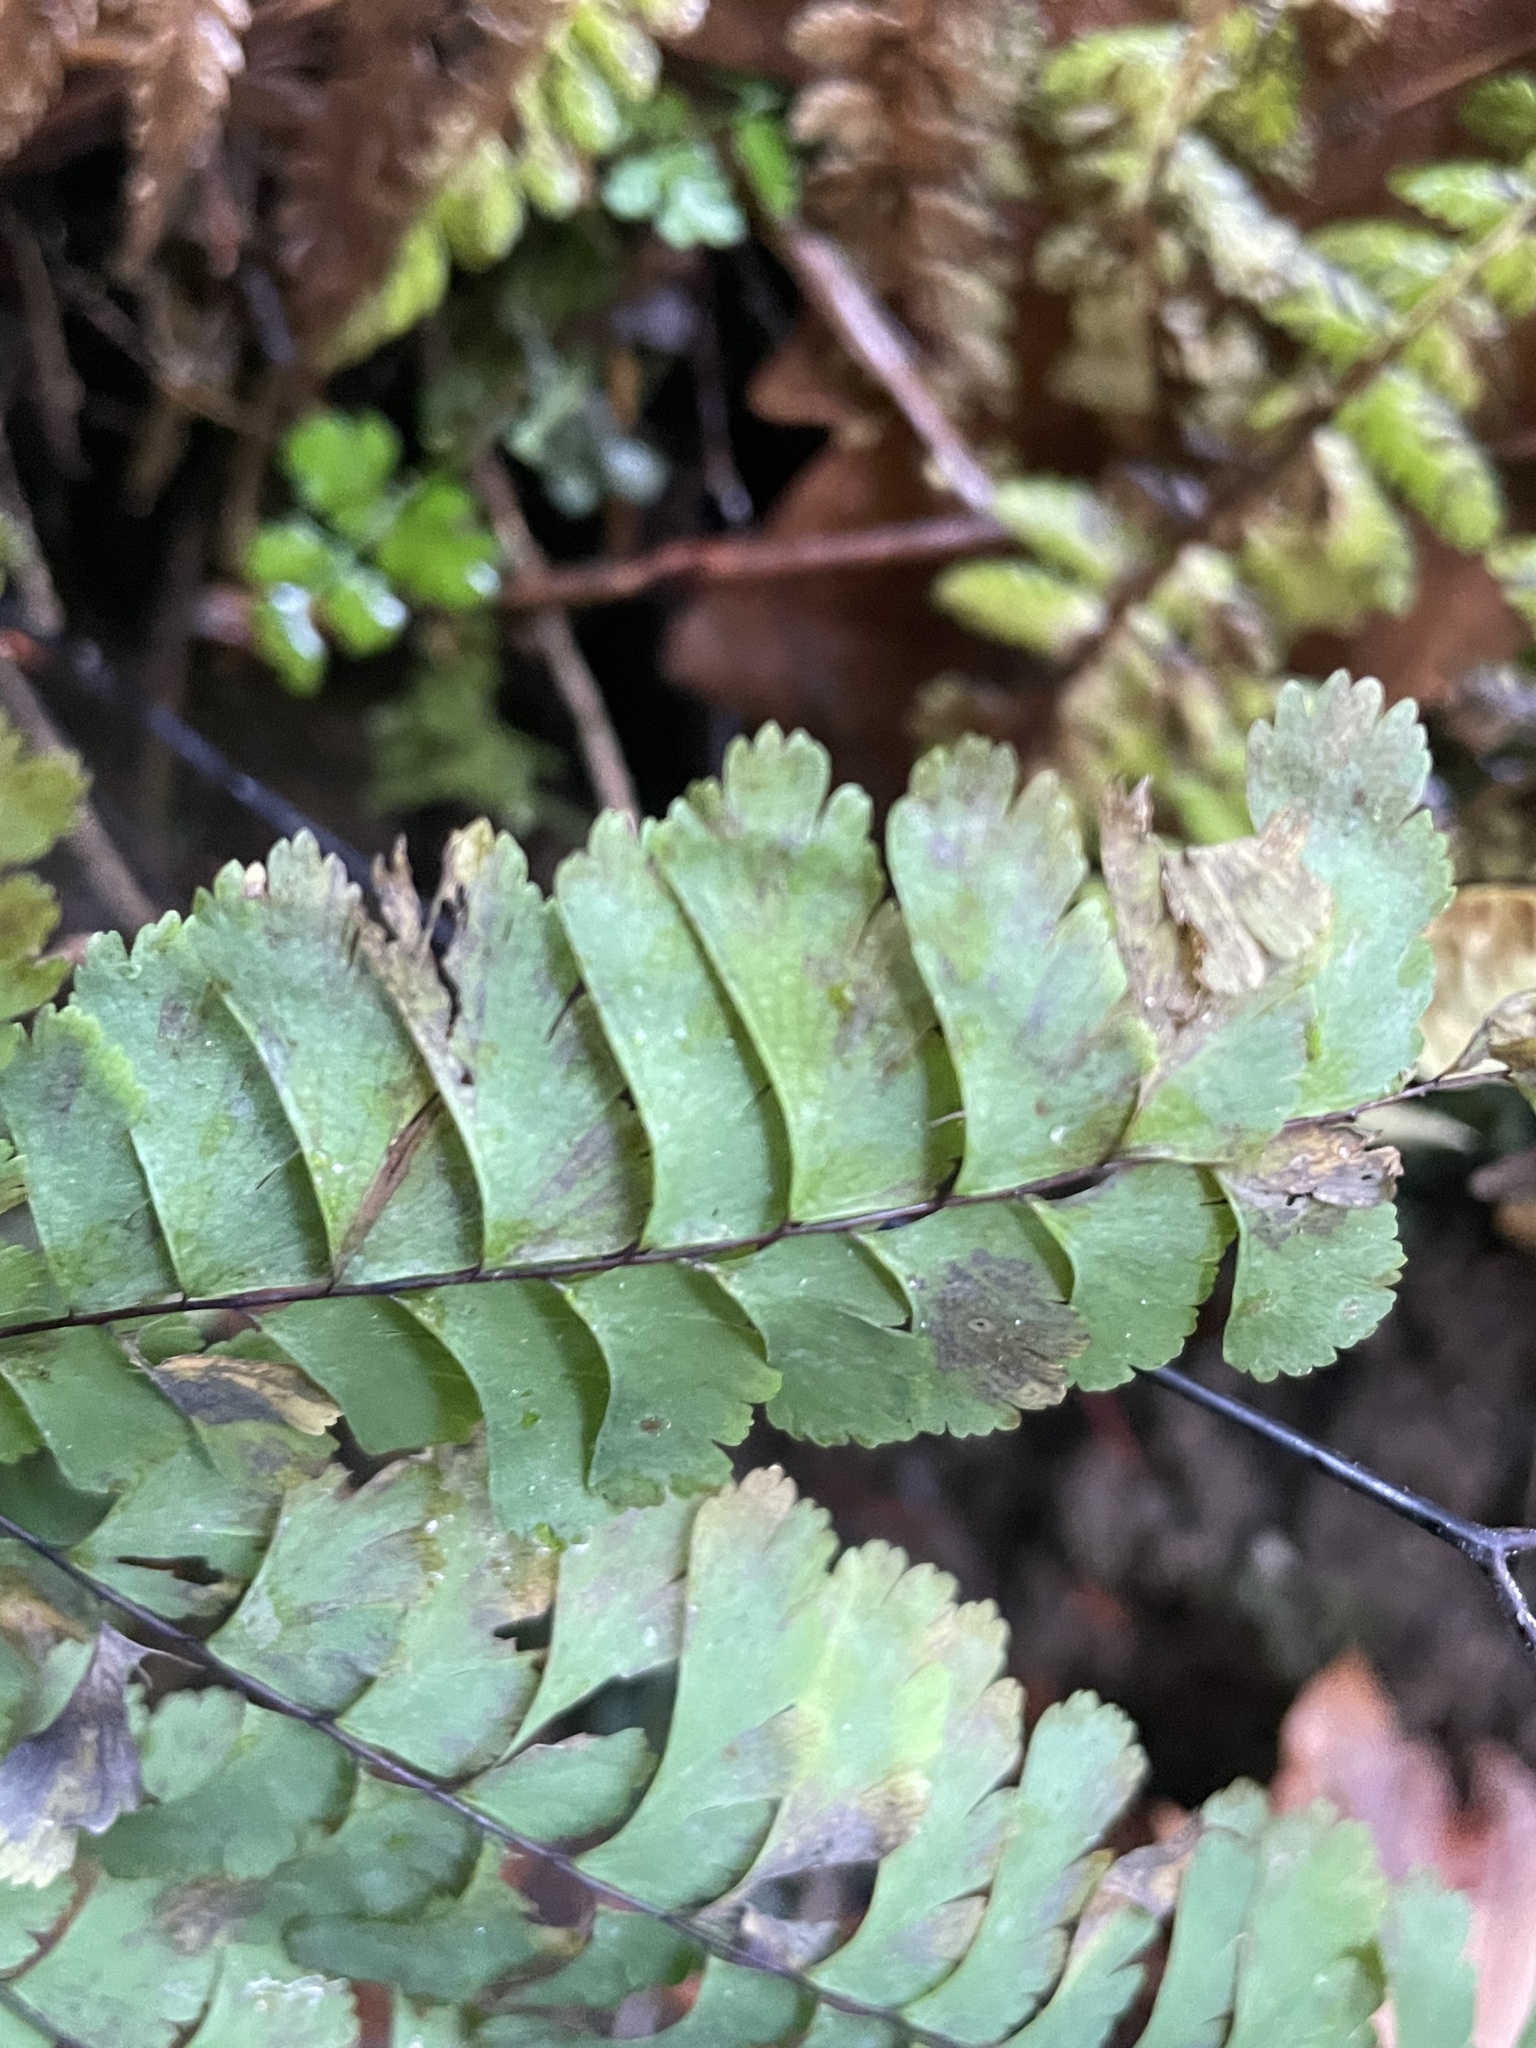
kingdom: Plantae
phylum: Tracheophyta
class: Polypodiopsida
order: Polypodiales
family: Pteridaceae
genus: Adiantum
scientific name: Adiantum aleuticum
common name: Aleutian maidenhair fern
